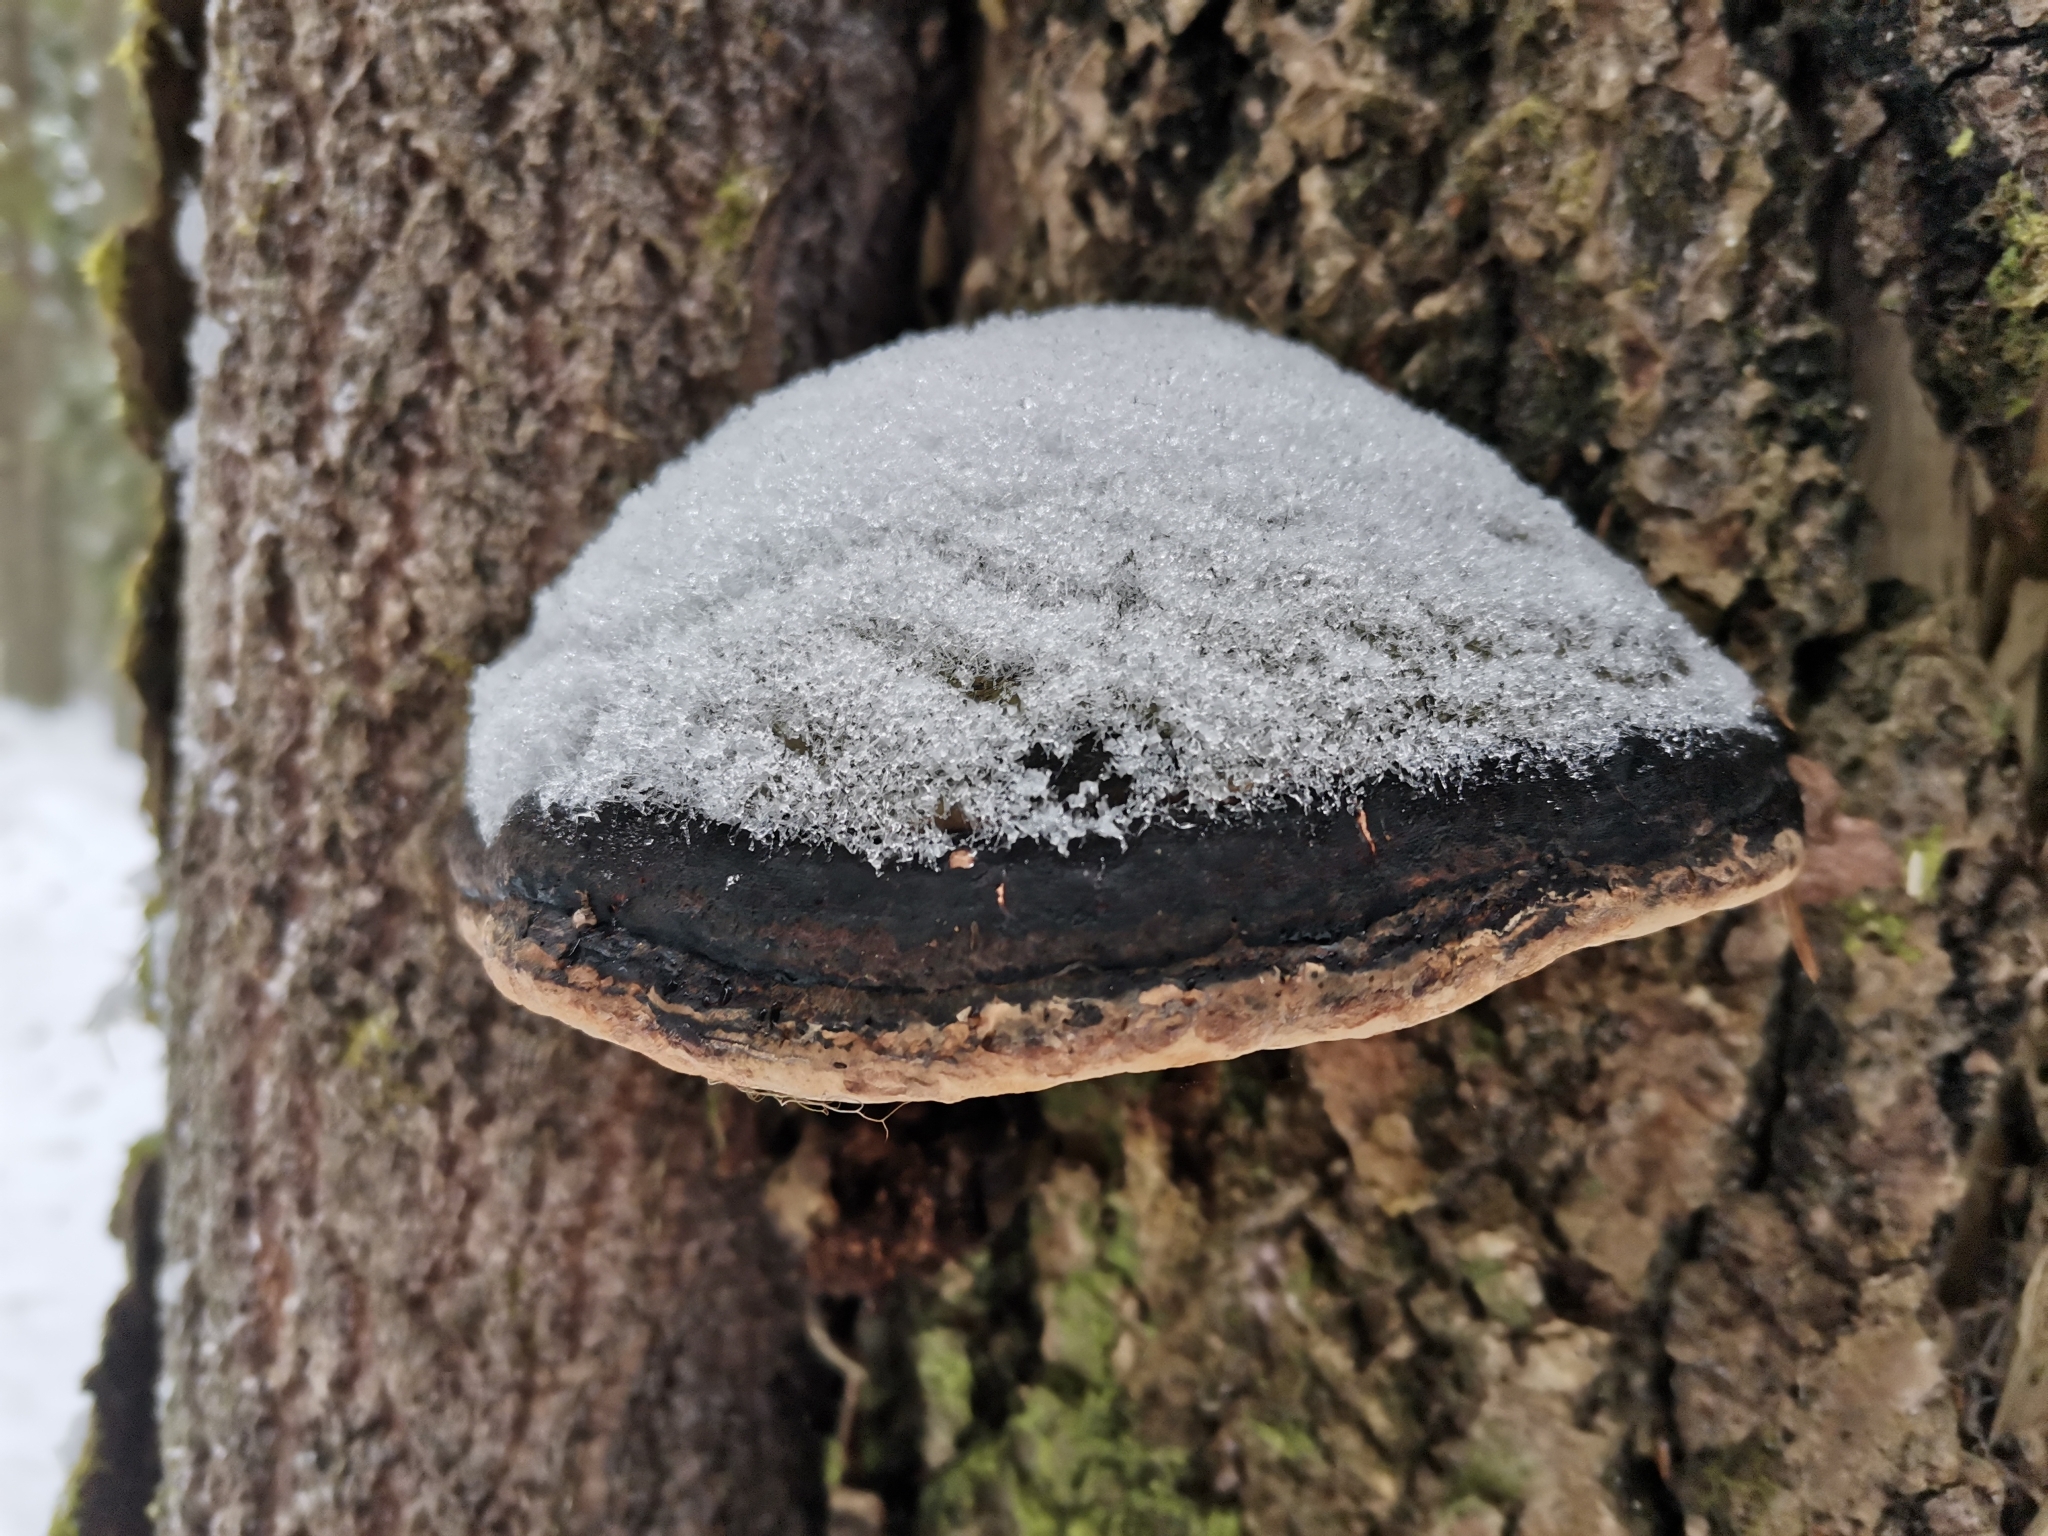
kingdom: Fungi
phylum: Basidiomycota
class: Agaricomycetes
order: Hymenochaetales
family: Hymenochaetaceae
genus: Phellinus
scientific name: Phellinus populicola
